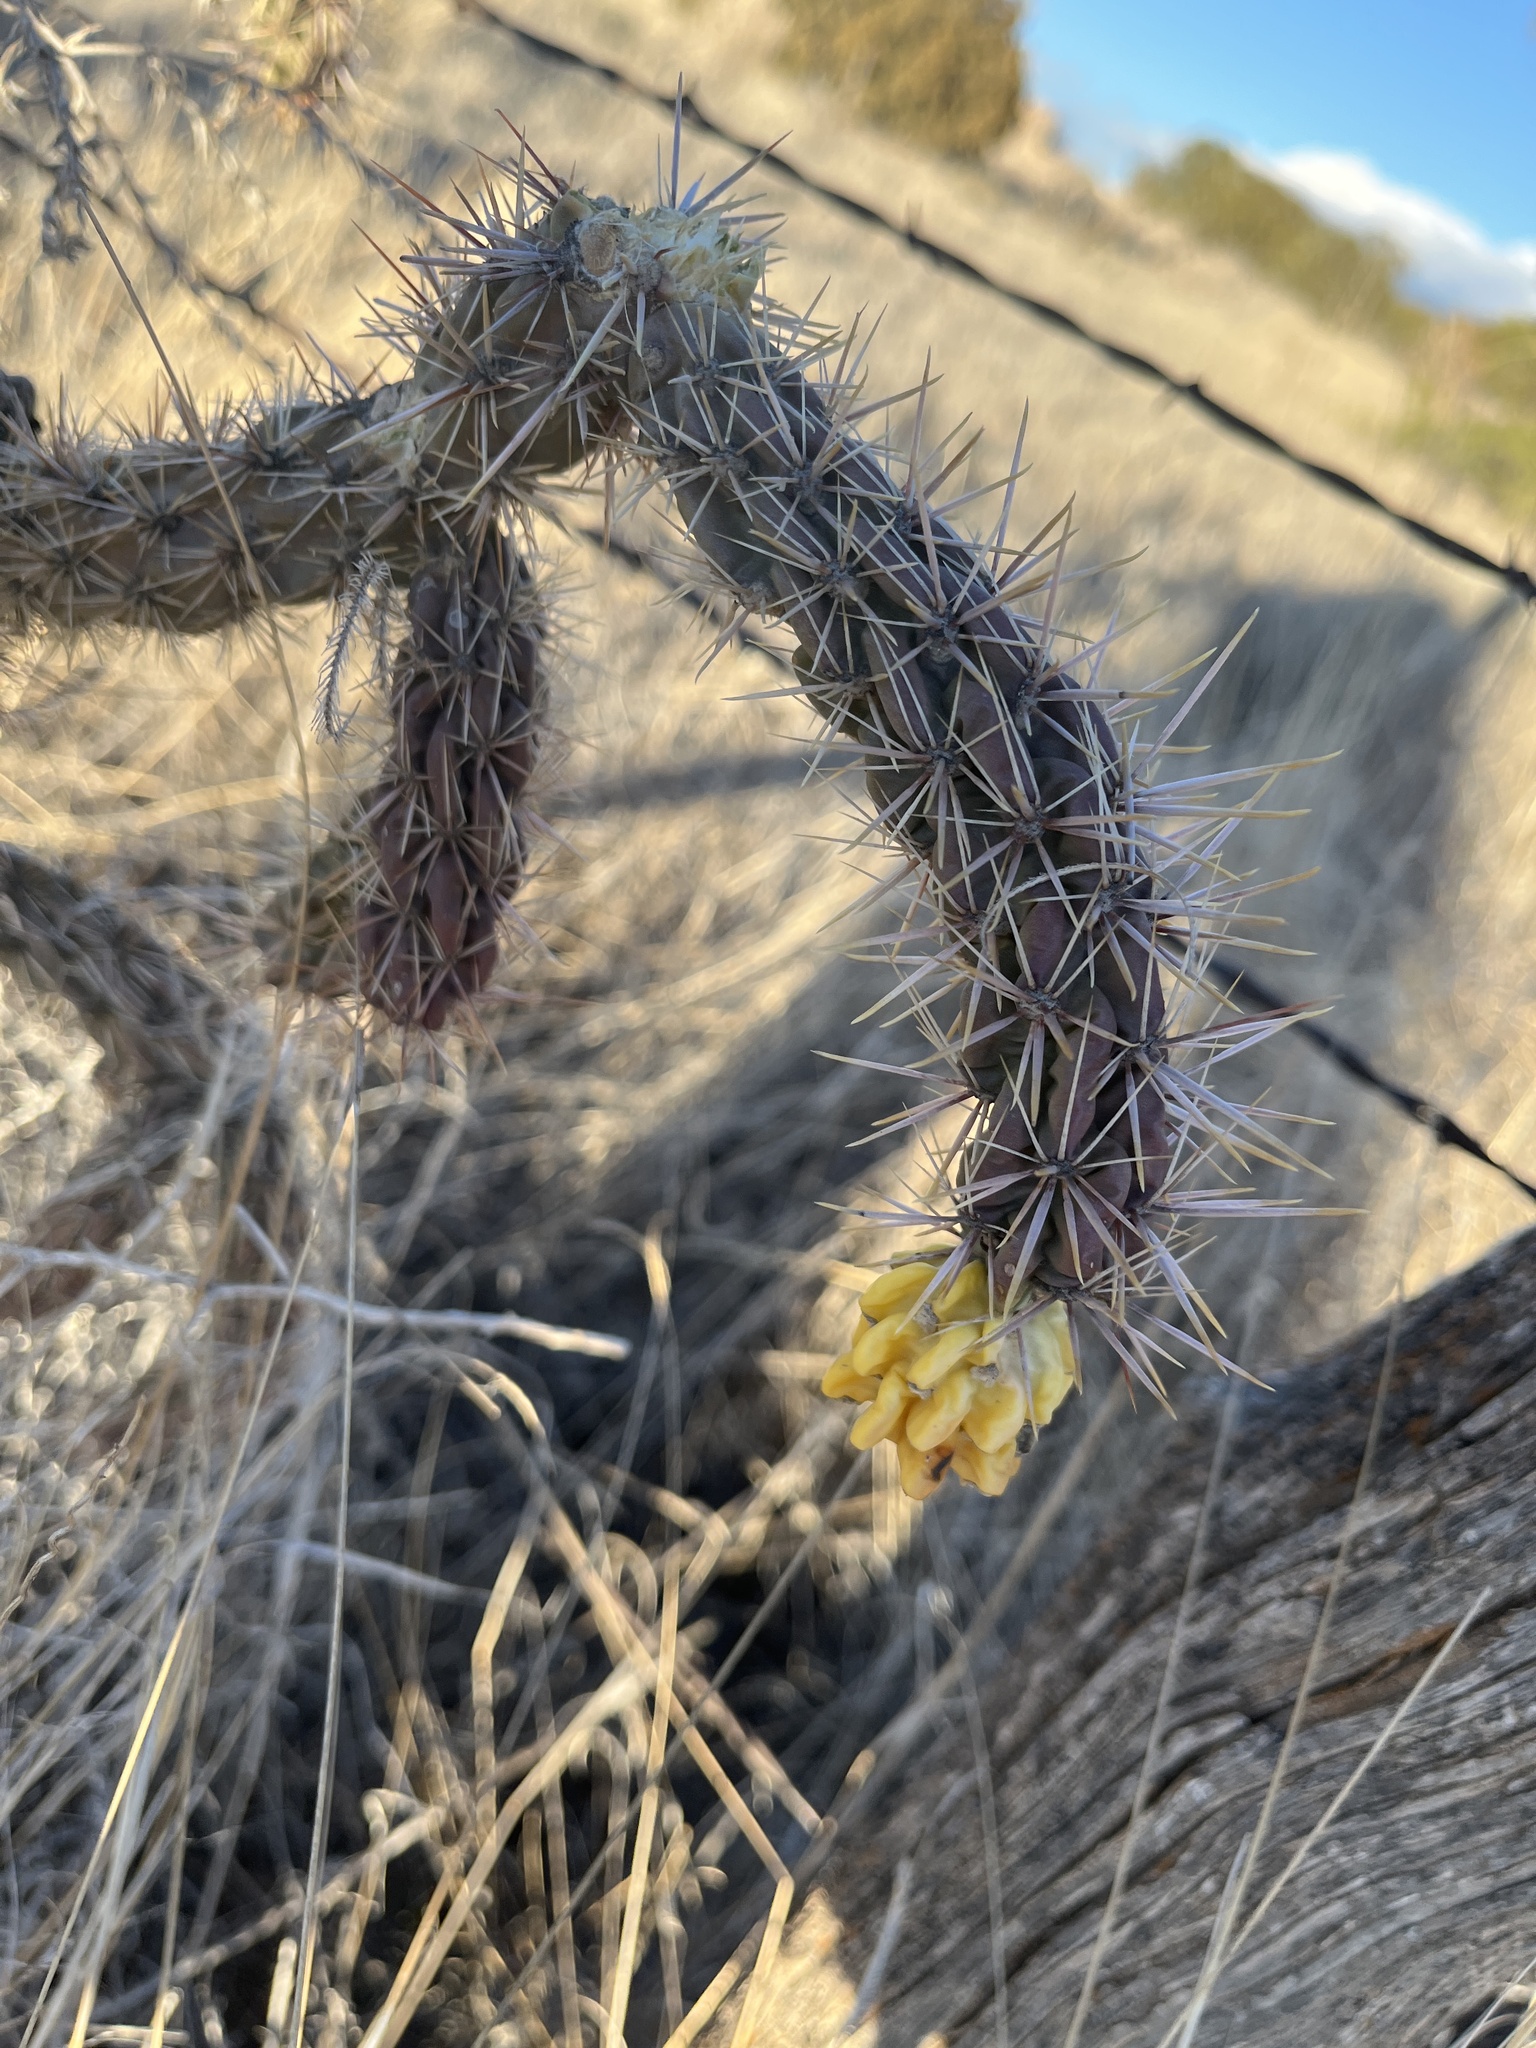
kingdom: Plantae
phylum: Tracheophyta
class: Magnoliopsida
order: Caryophyllales
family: Cactaceae
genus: Cylindropuntia
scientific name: Cylindropuntia imbricata
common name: Candelabrum cactus
